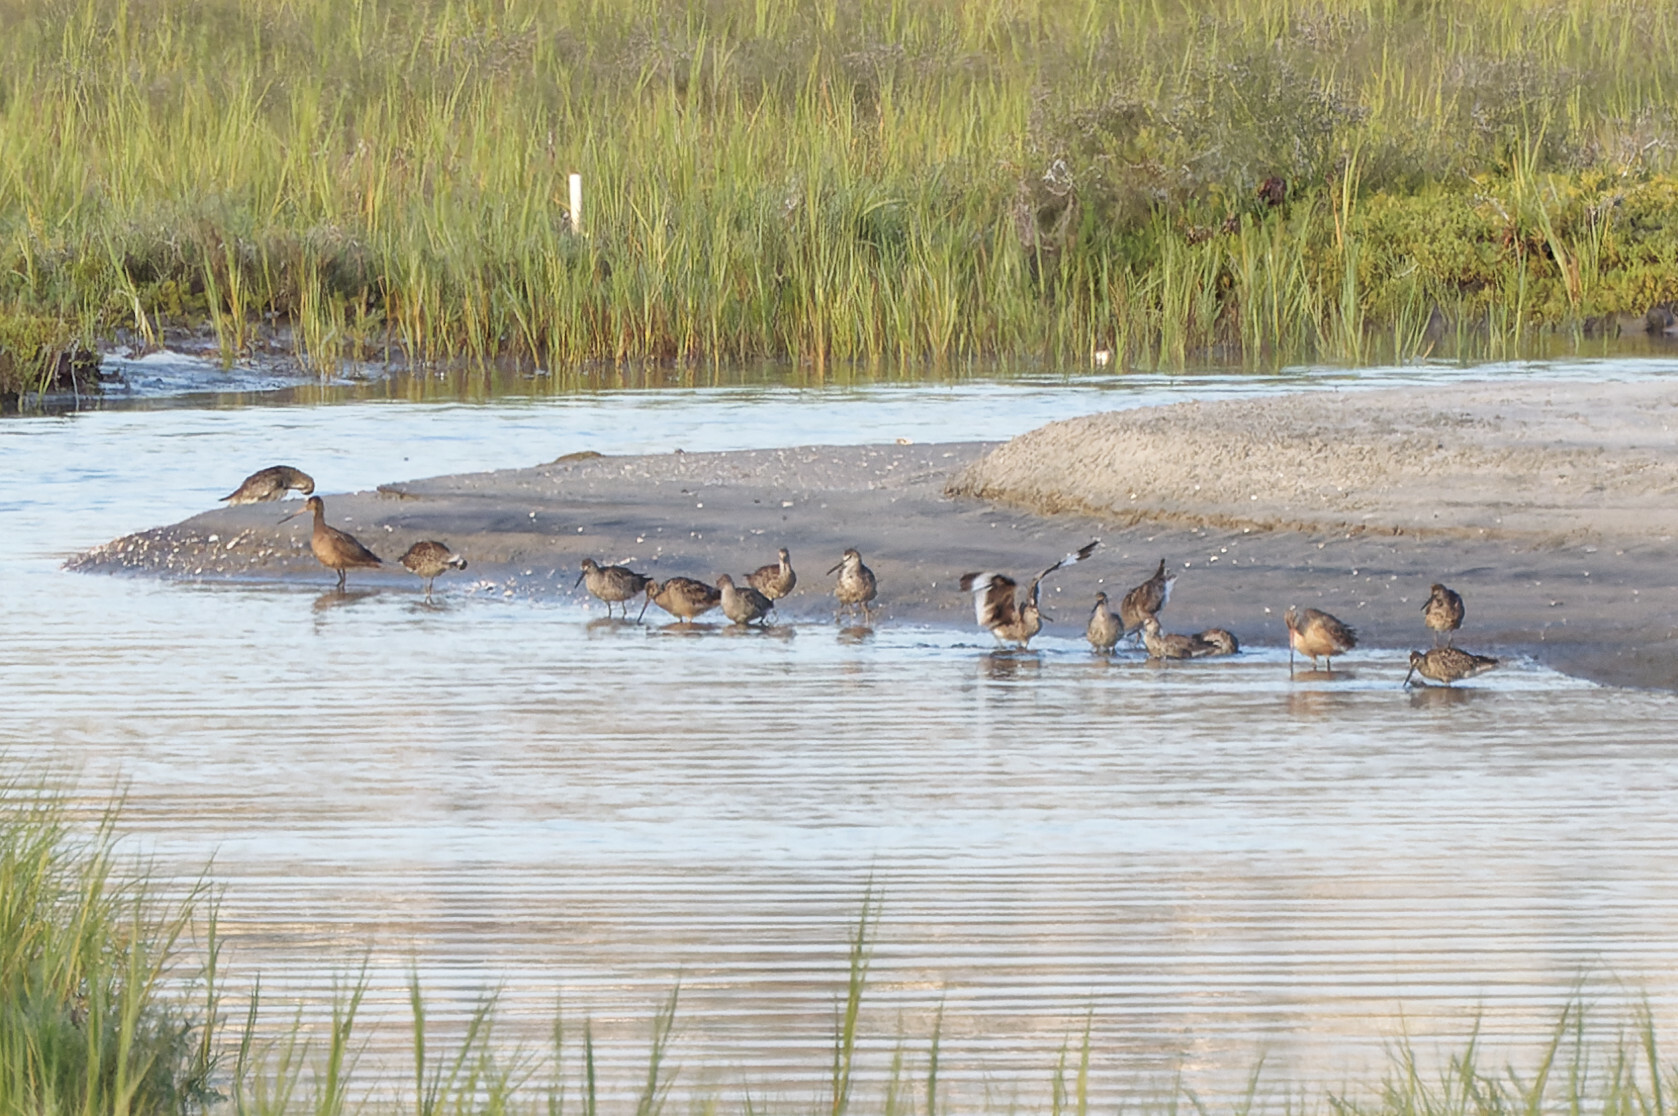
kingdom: Animalia
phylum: Chordata
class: Aves
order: Charadriiformes
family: Scolopacidae
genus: Tringa
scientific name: Tringa semipalmata
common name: Willet
